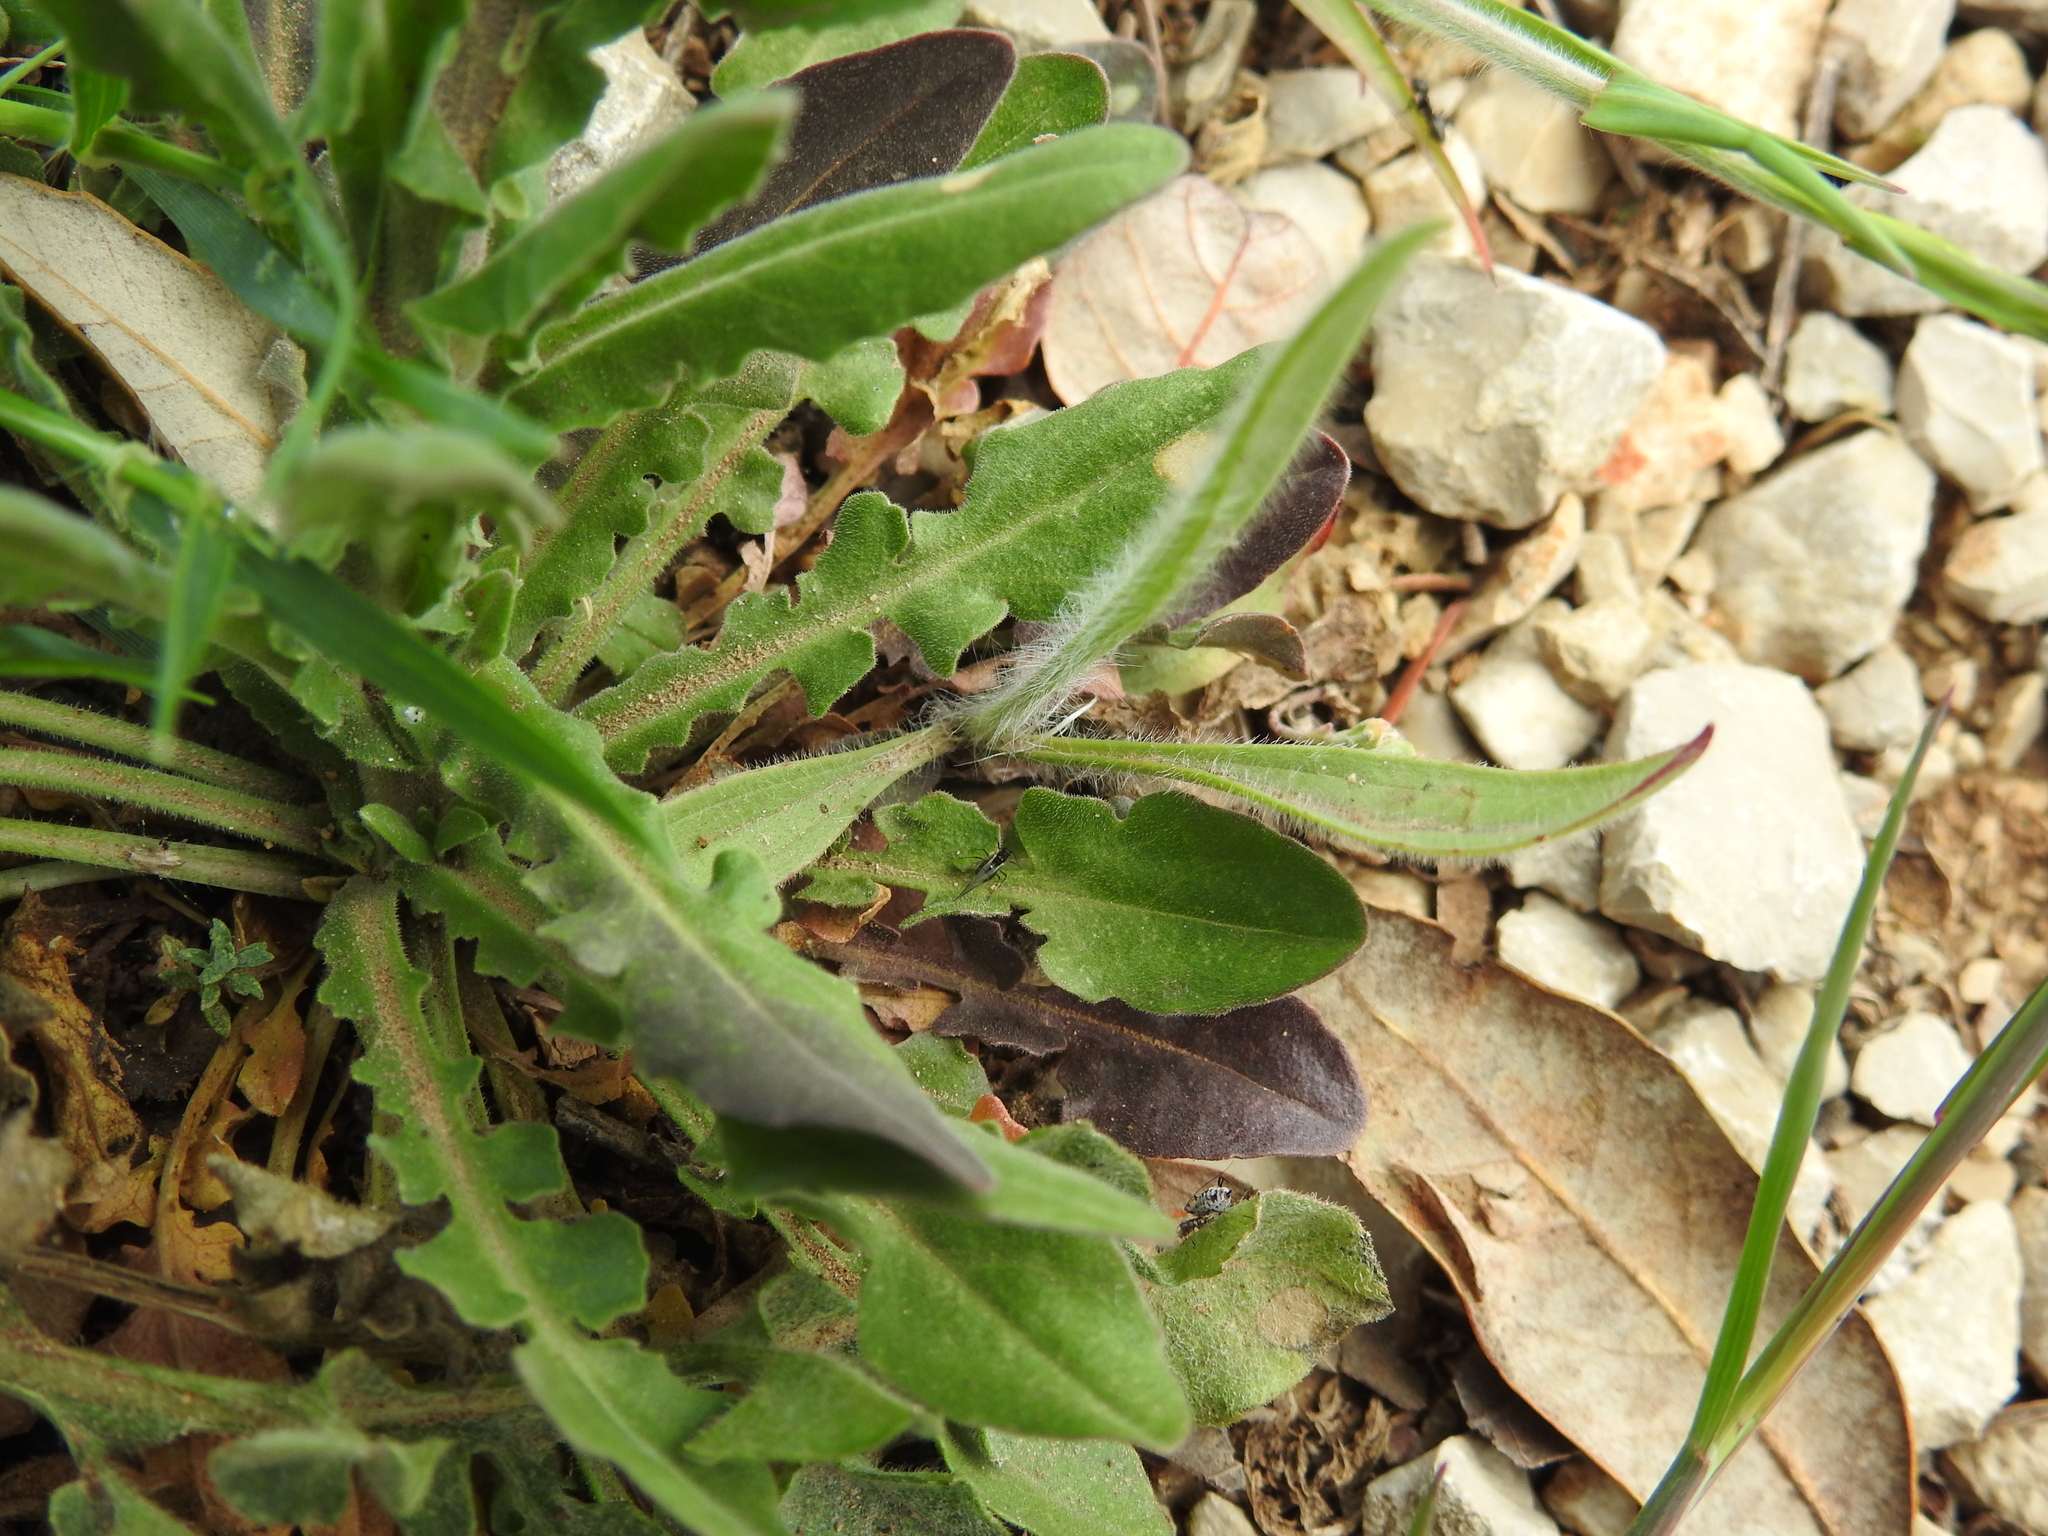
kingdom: Plantae
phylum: Tracheophyta
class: Magnoliopsida
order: Brassicales
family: Brassicaceae
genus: Lepidium
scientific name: Lepidium campestre
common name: Field pepperwort
